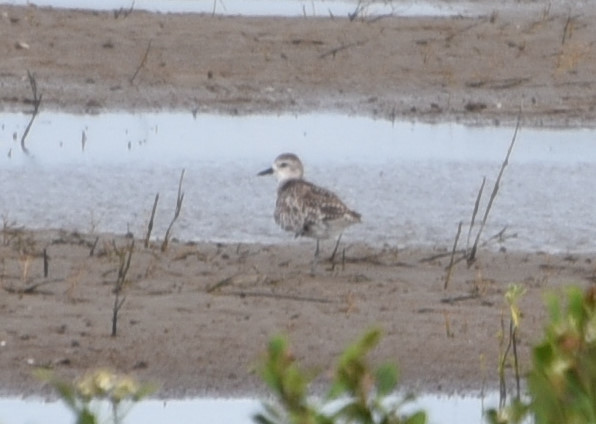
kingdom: Animalia
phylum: Chordata
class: Aves
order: Charadriiformes
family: Charadriidae
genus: Pluvialis
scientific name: Pluvialis squatarola
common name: Grey plover
